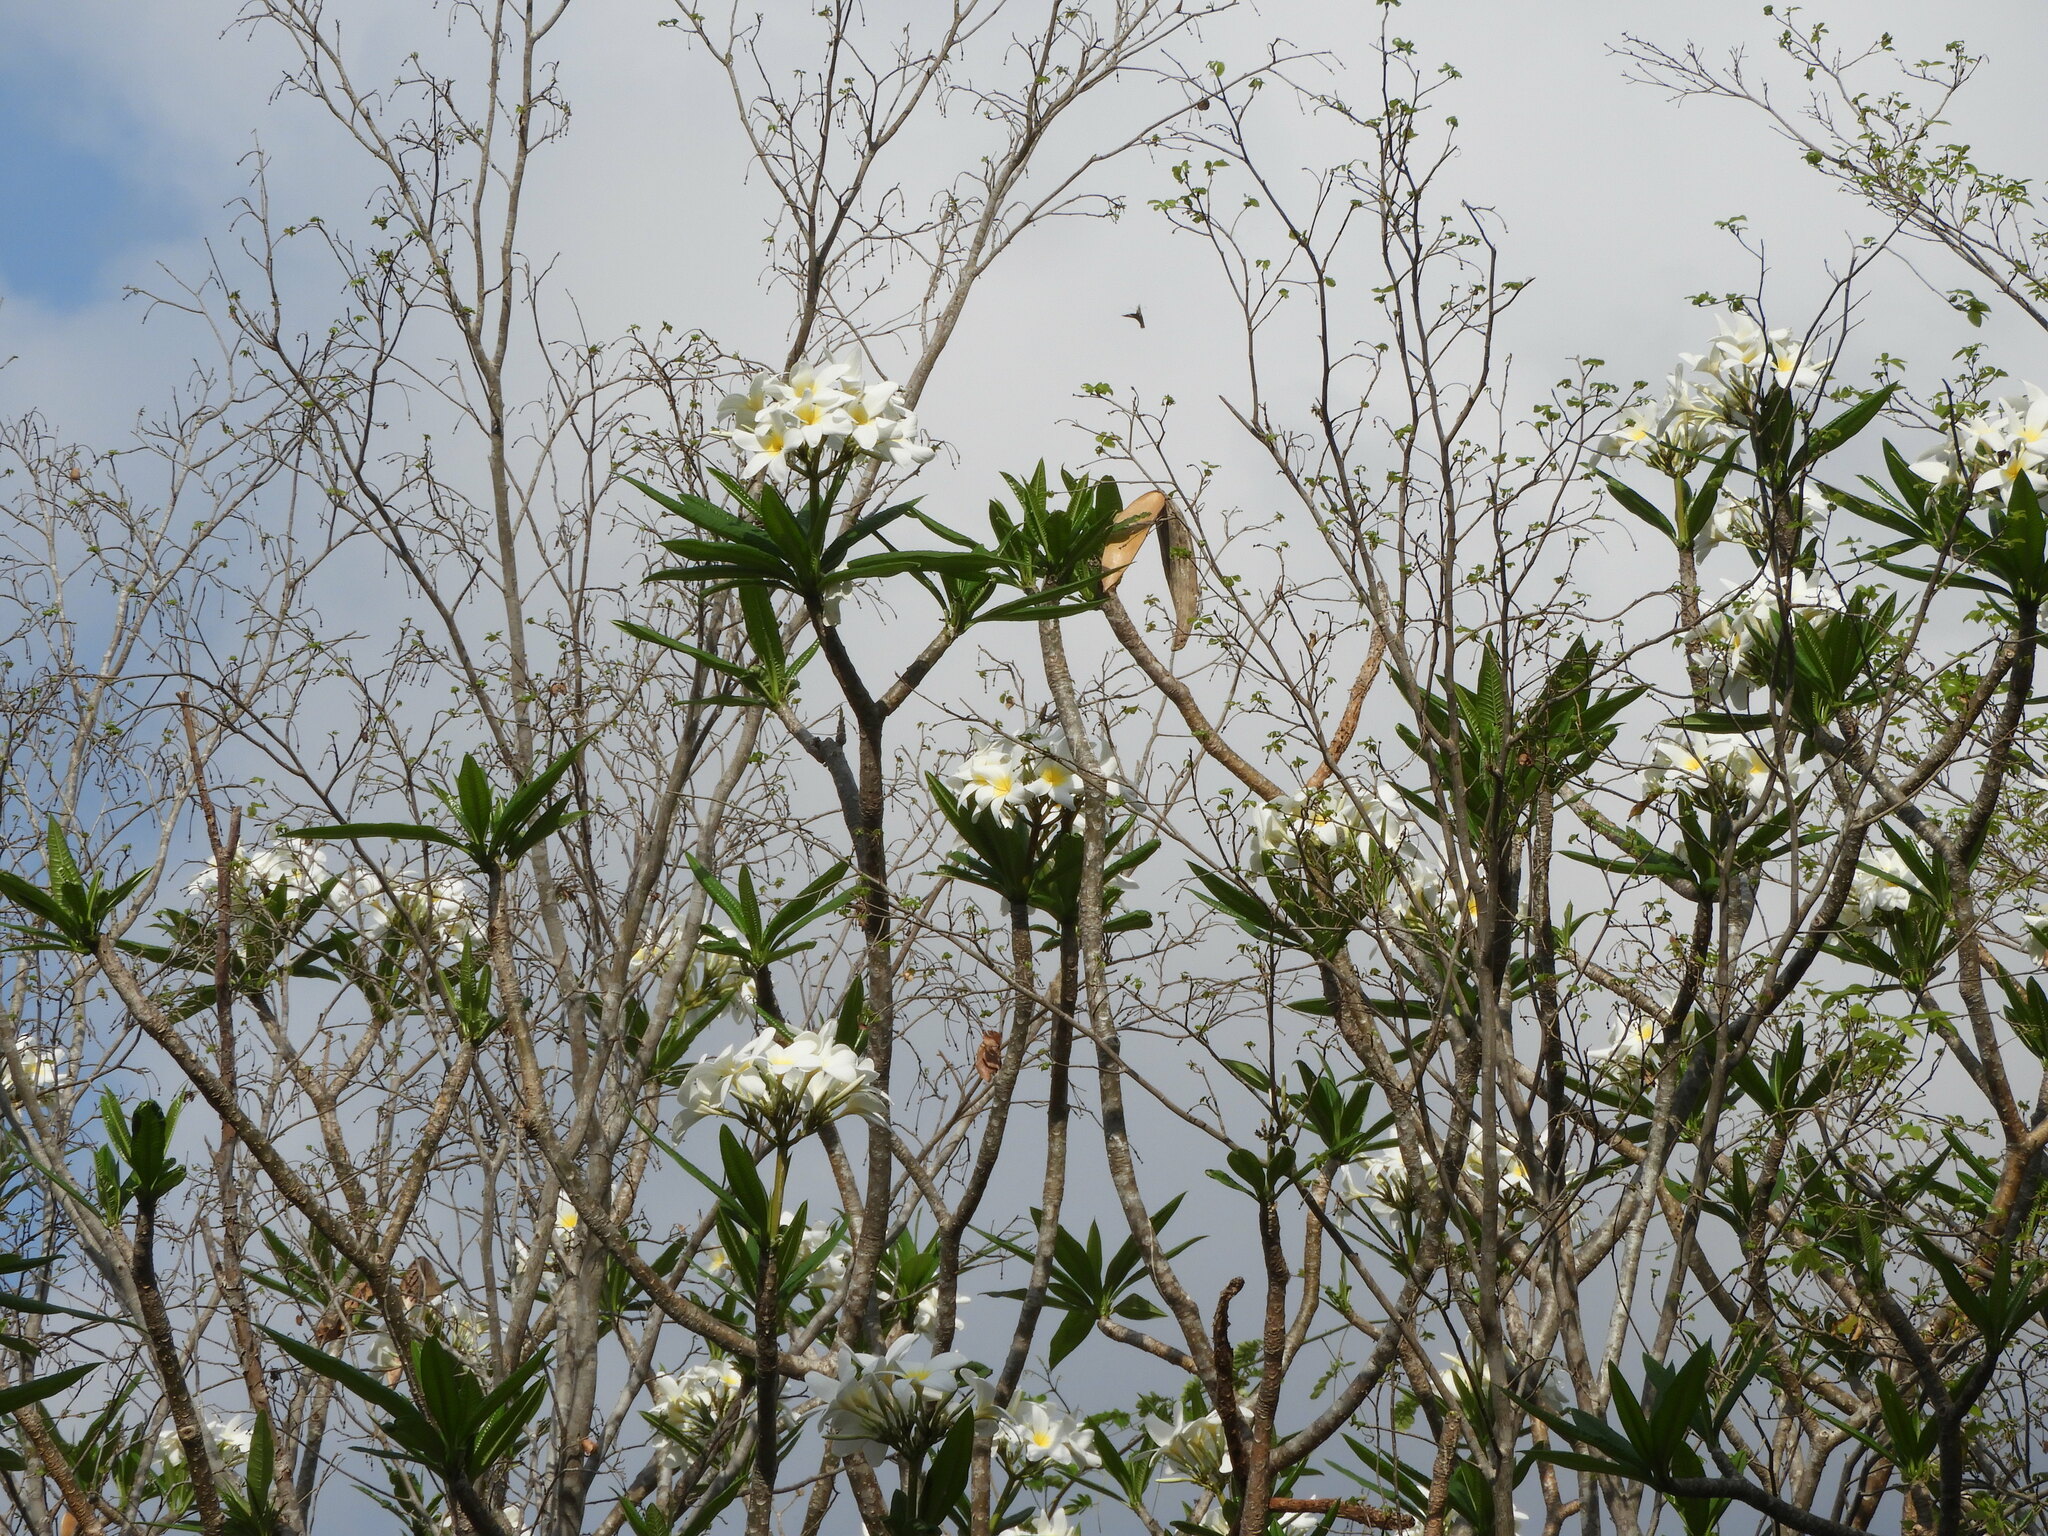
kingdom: Plantae
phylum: Tracheophyta
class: Magnoliopsida
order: Gentianales
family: Apocynaceae
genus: Plumeria
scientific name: Plumeria rubra
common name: Pagoda-tree
